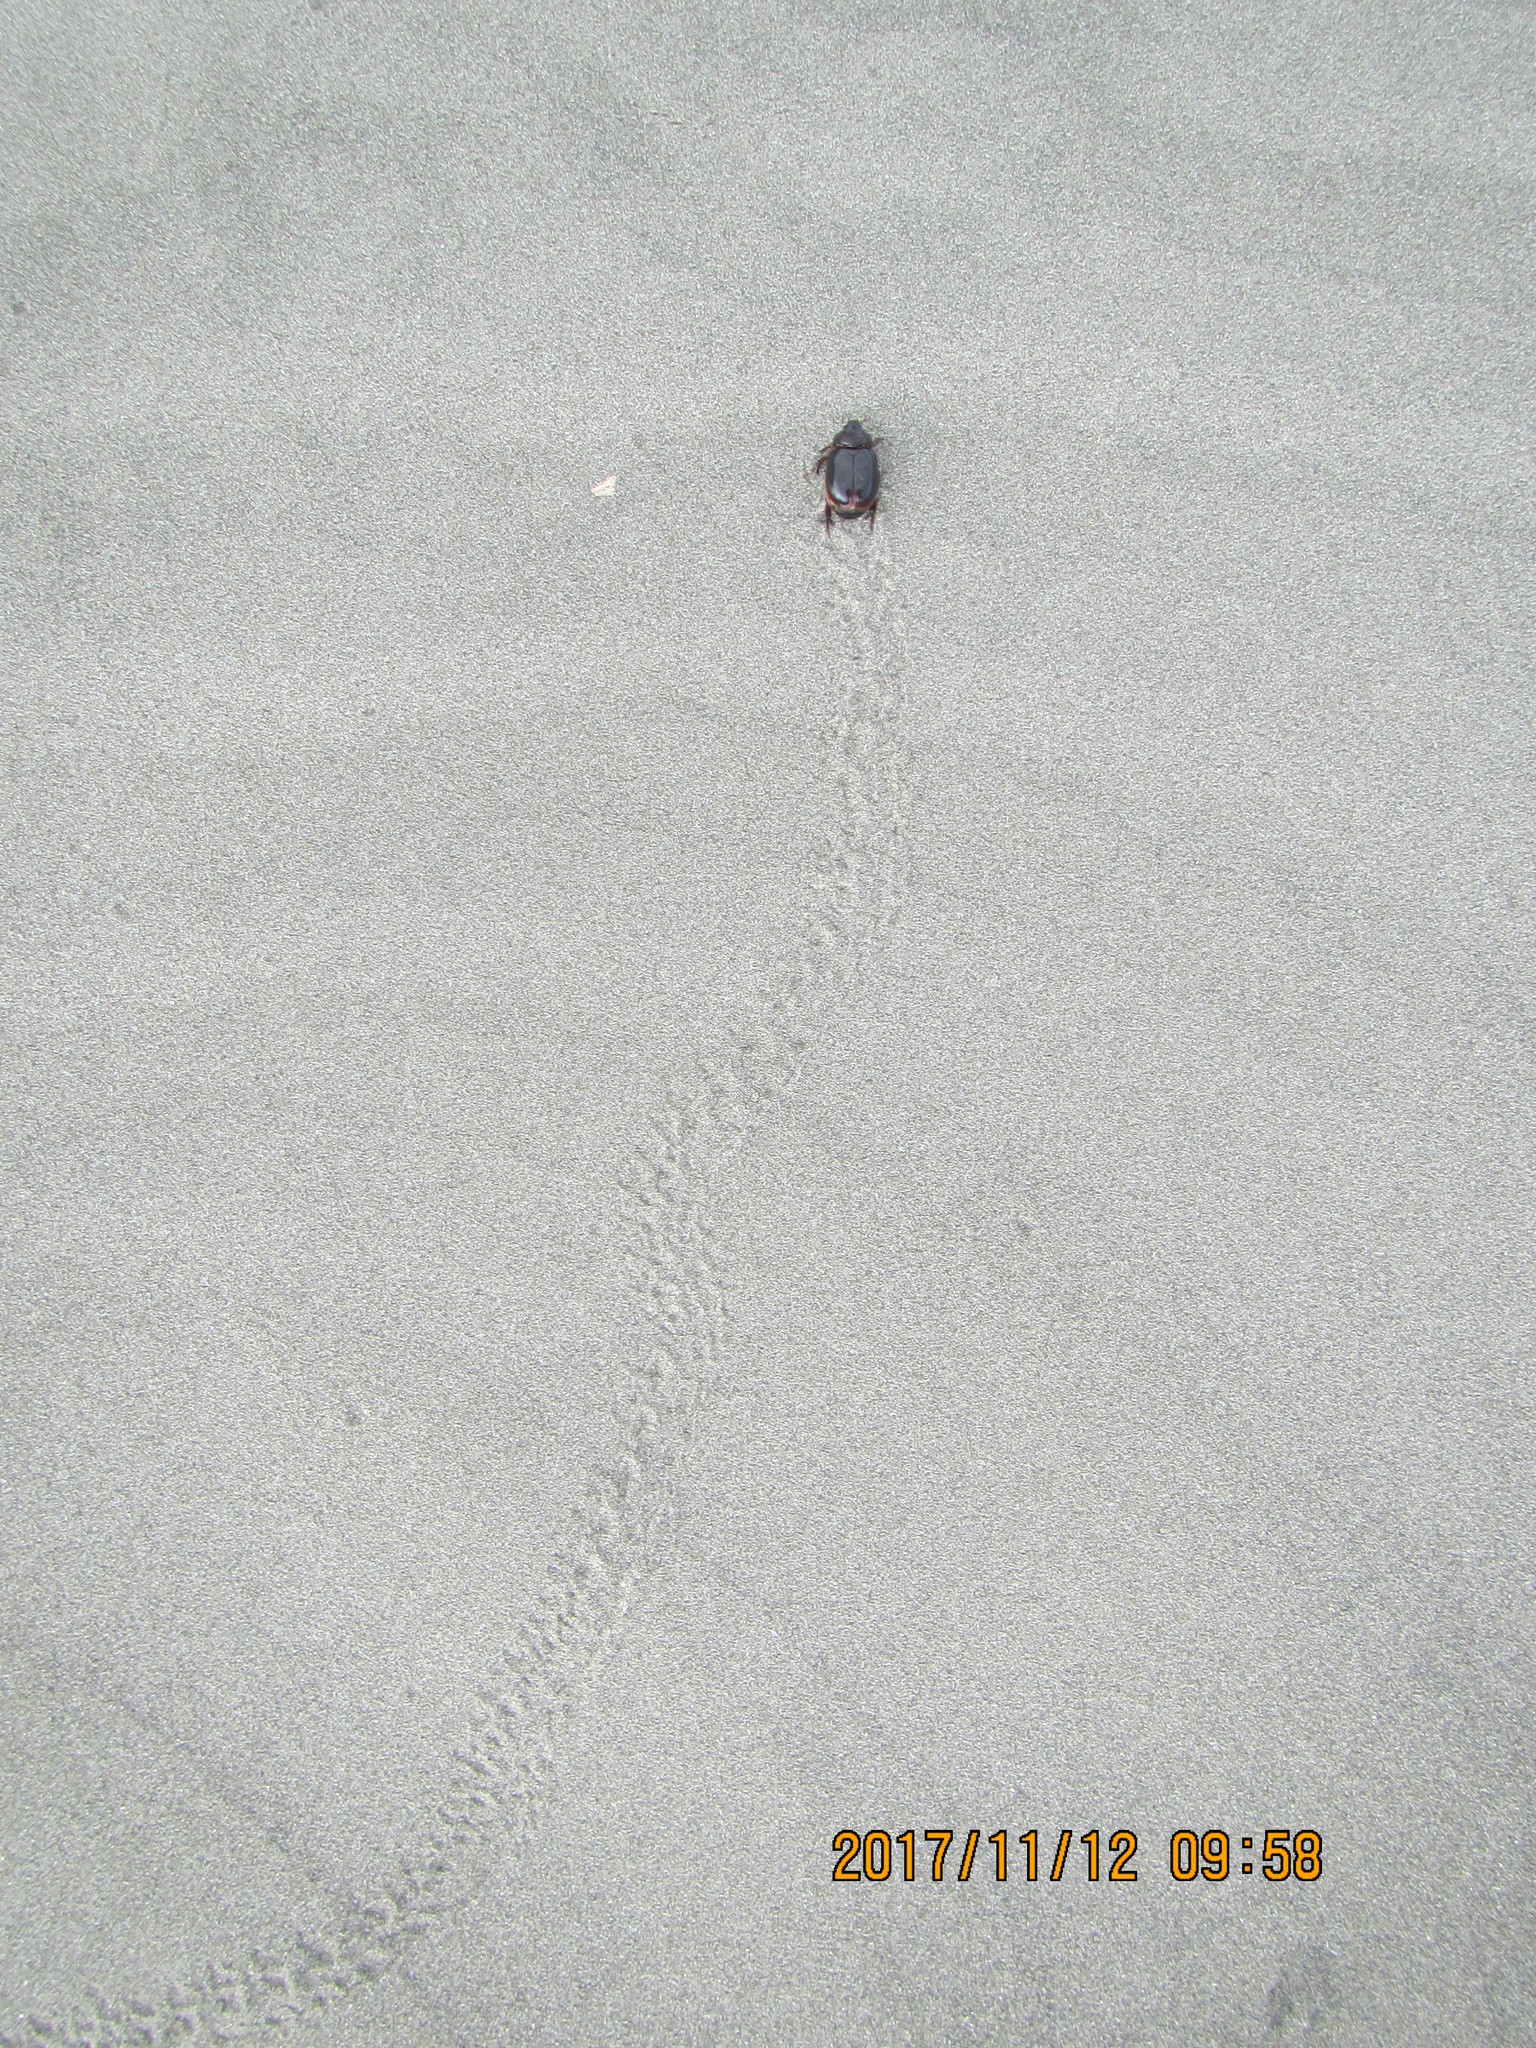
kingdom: Animalia
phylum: Arthropoda
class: Insecta
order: Coleoptera
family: Scarabaeidae
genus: Pericoptus
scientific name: Pericoptus truncatus
